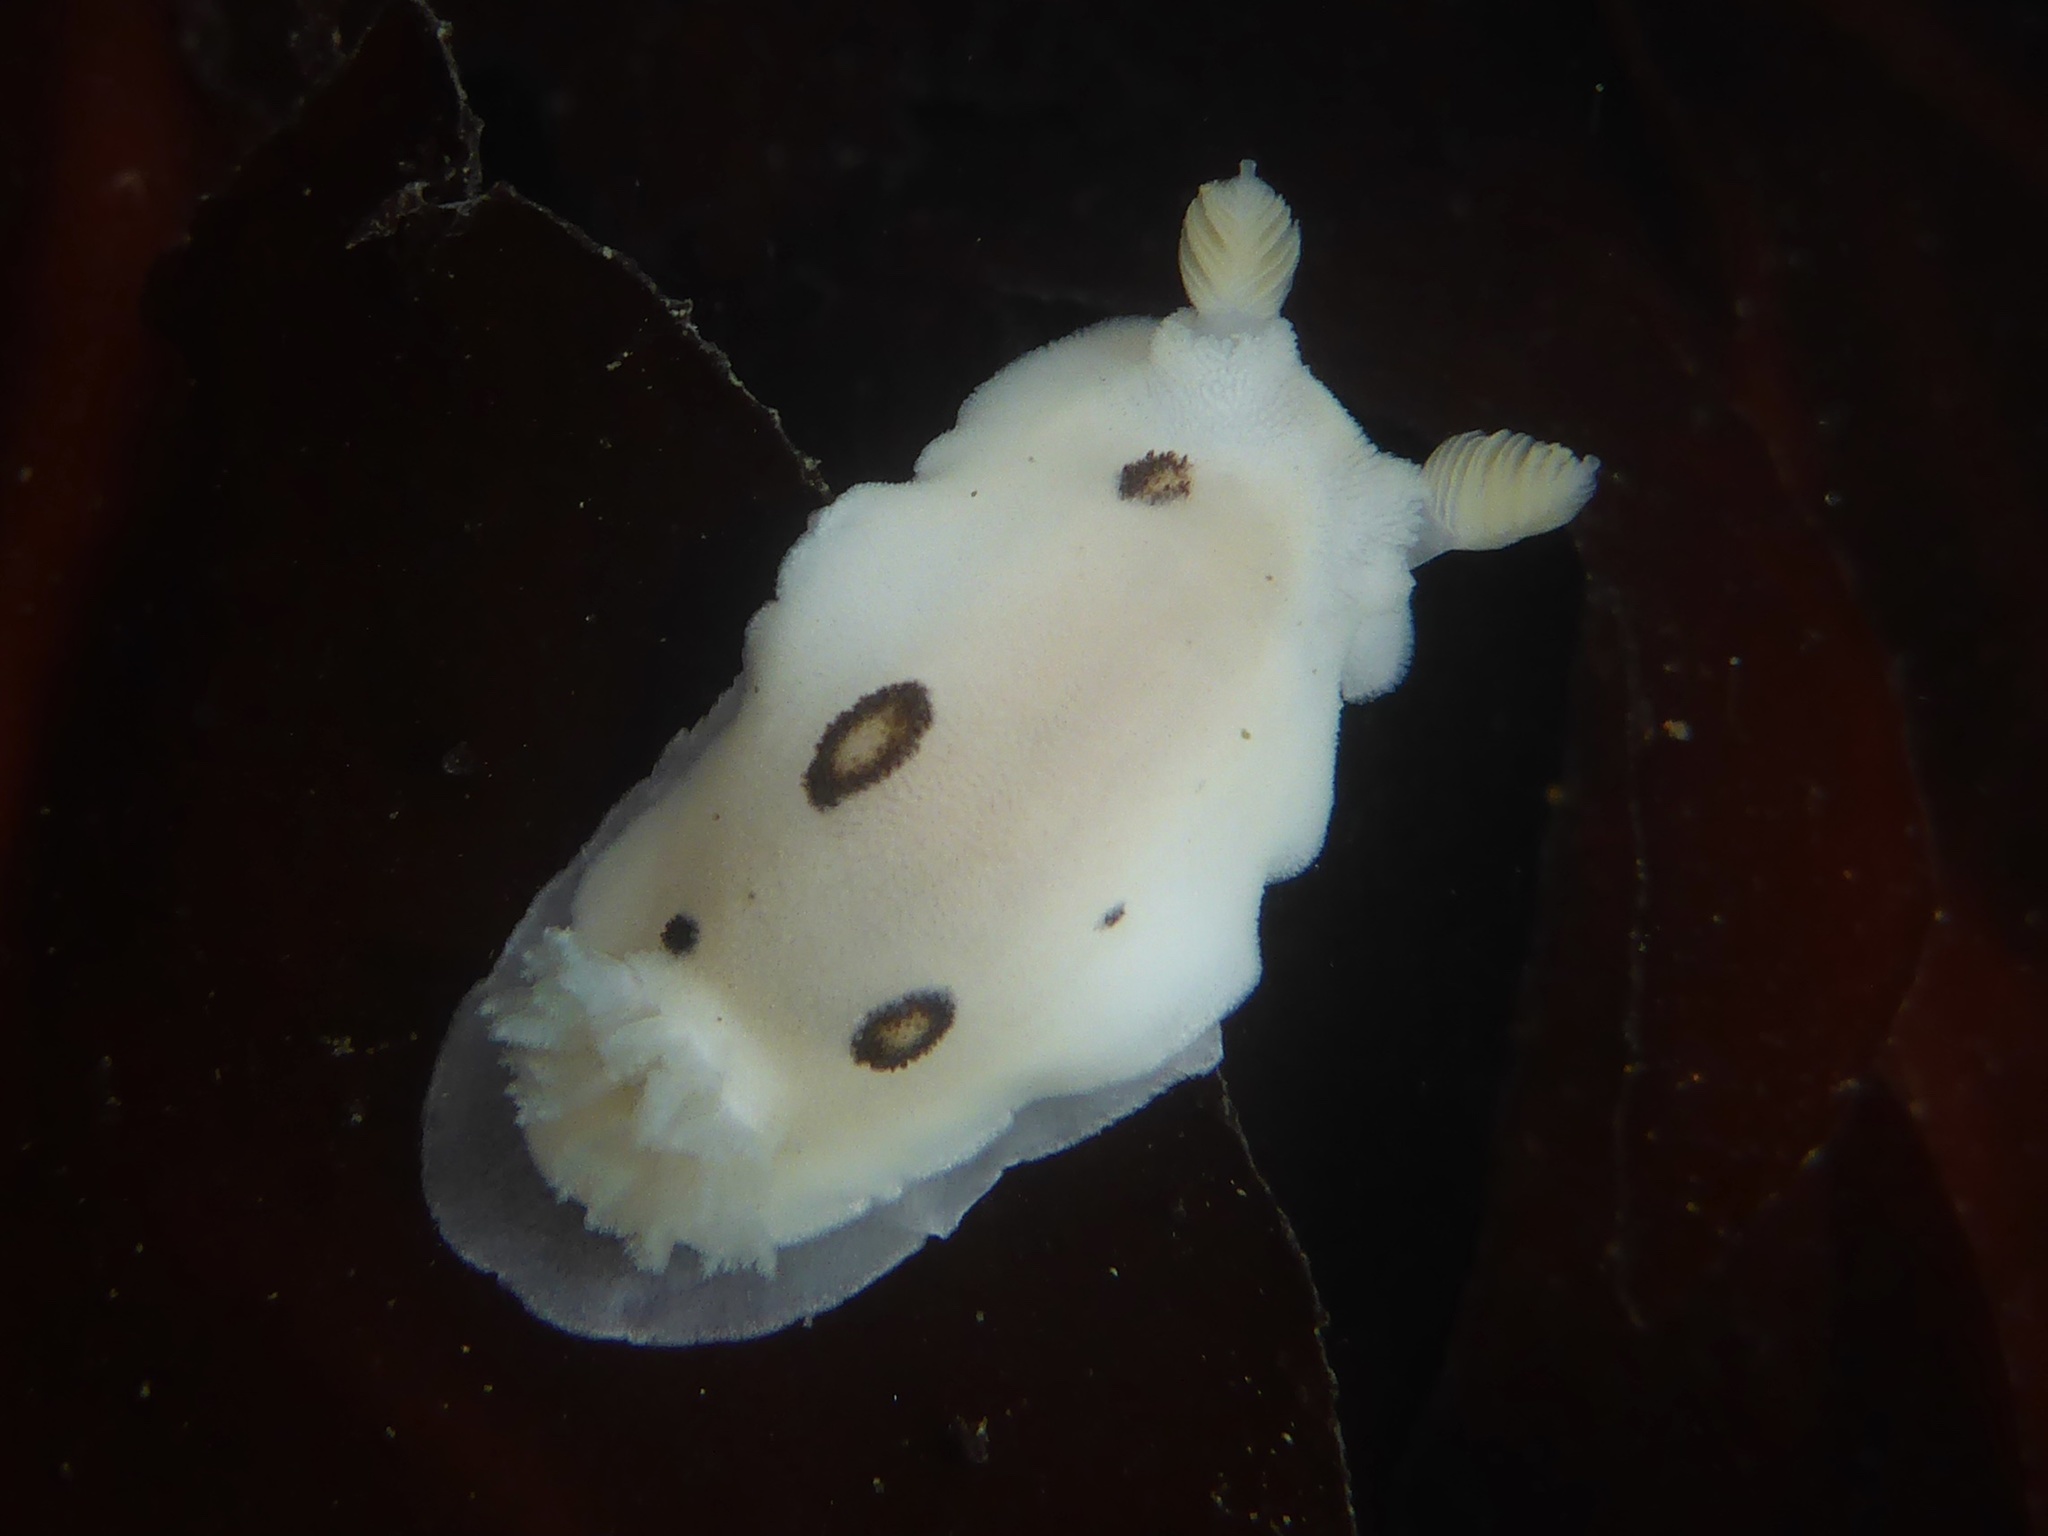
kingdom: Animalia
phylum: Mollusca
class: Gastropoda
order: Nudibranchia
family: Discodorididae
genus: Diaulula
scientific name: Diaulula sandiegensis
